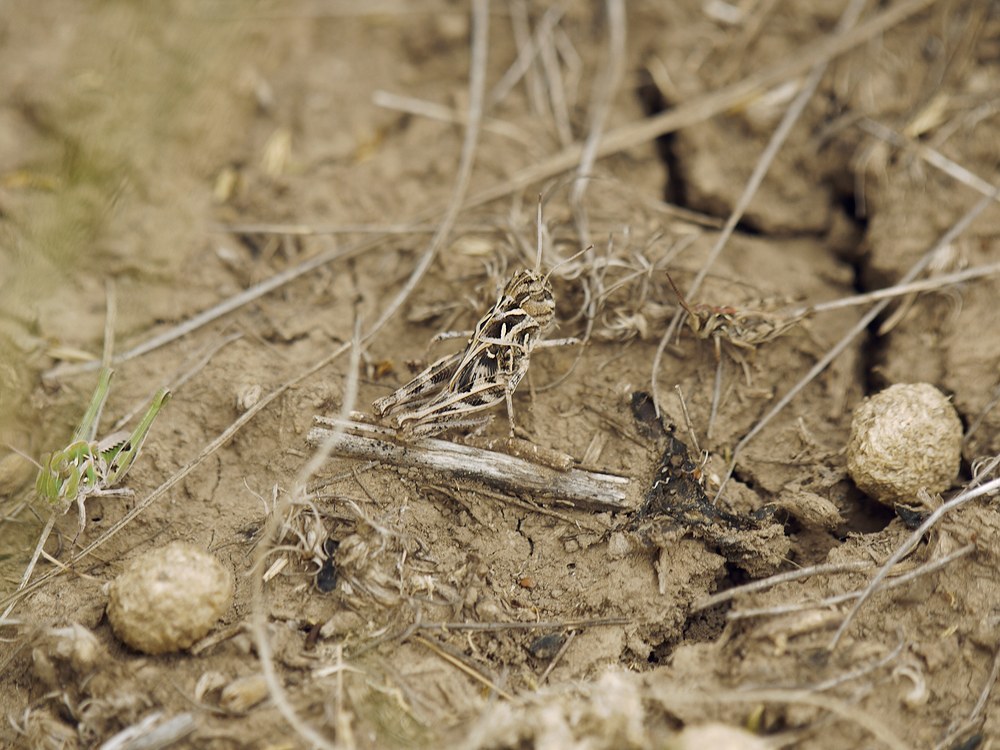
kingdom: Animalia
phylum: Arthropoda
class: Insecta
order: Orthoptera
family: Acrididae
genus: Oedaleus
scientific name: Oedaleus decorus
